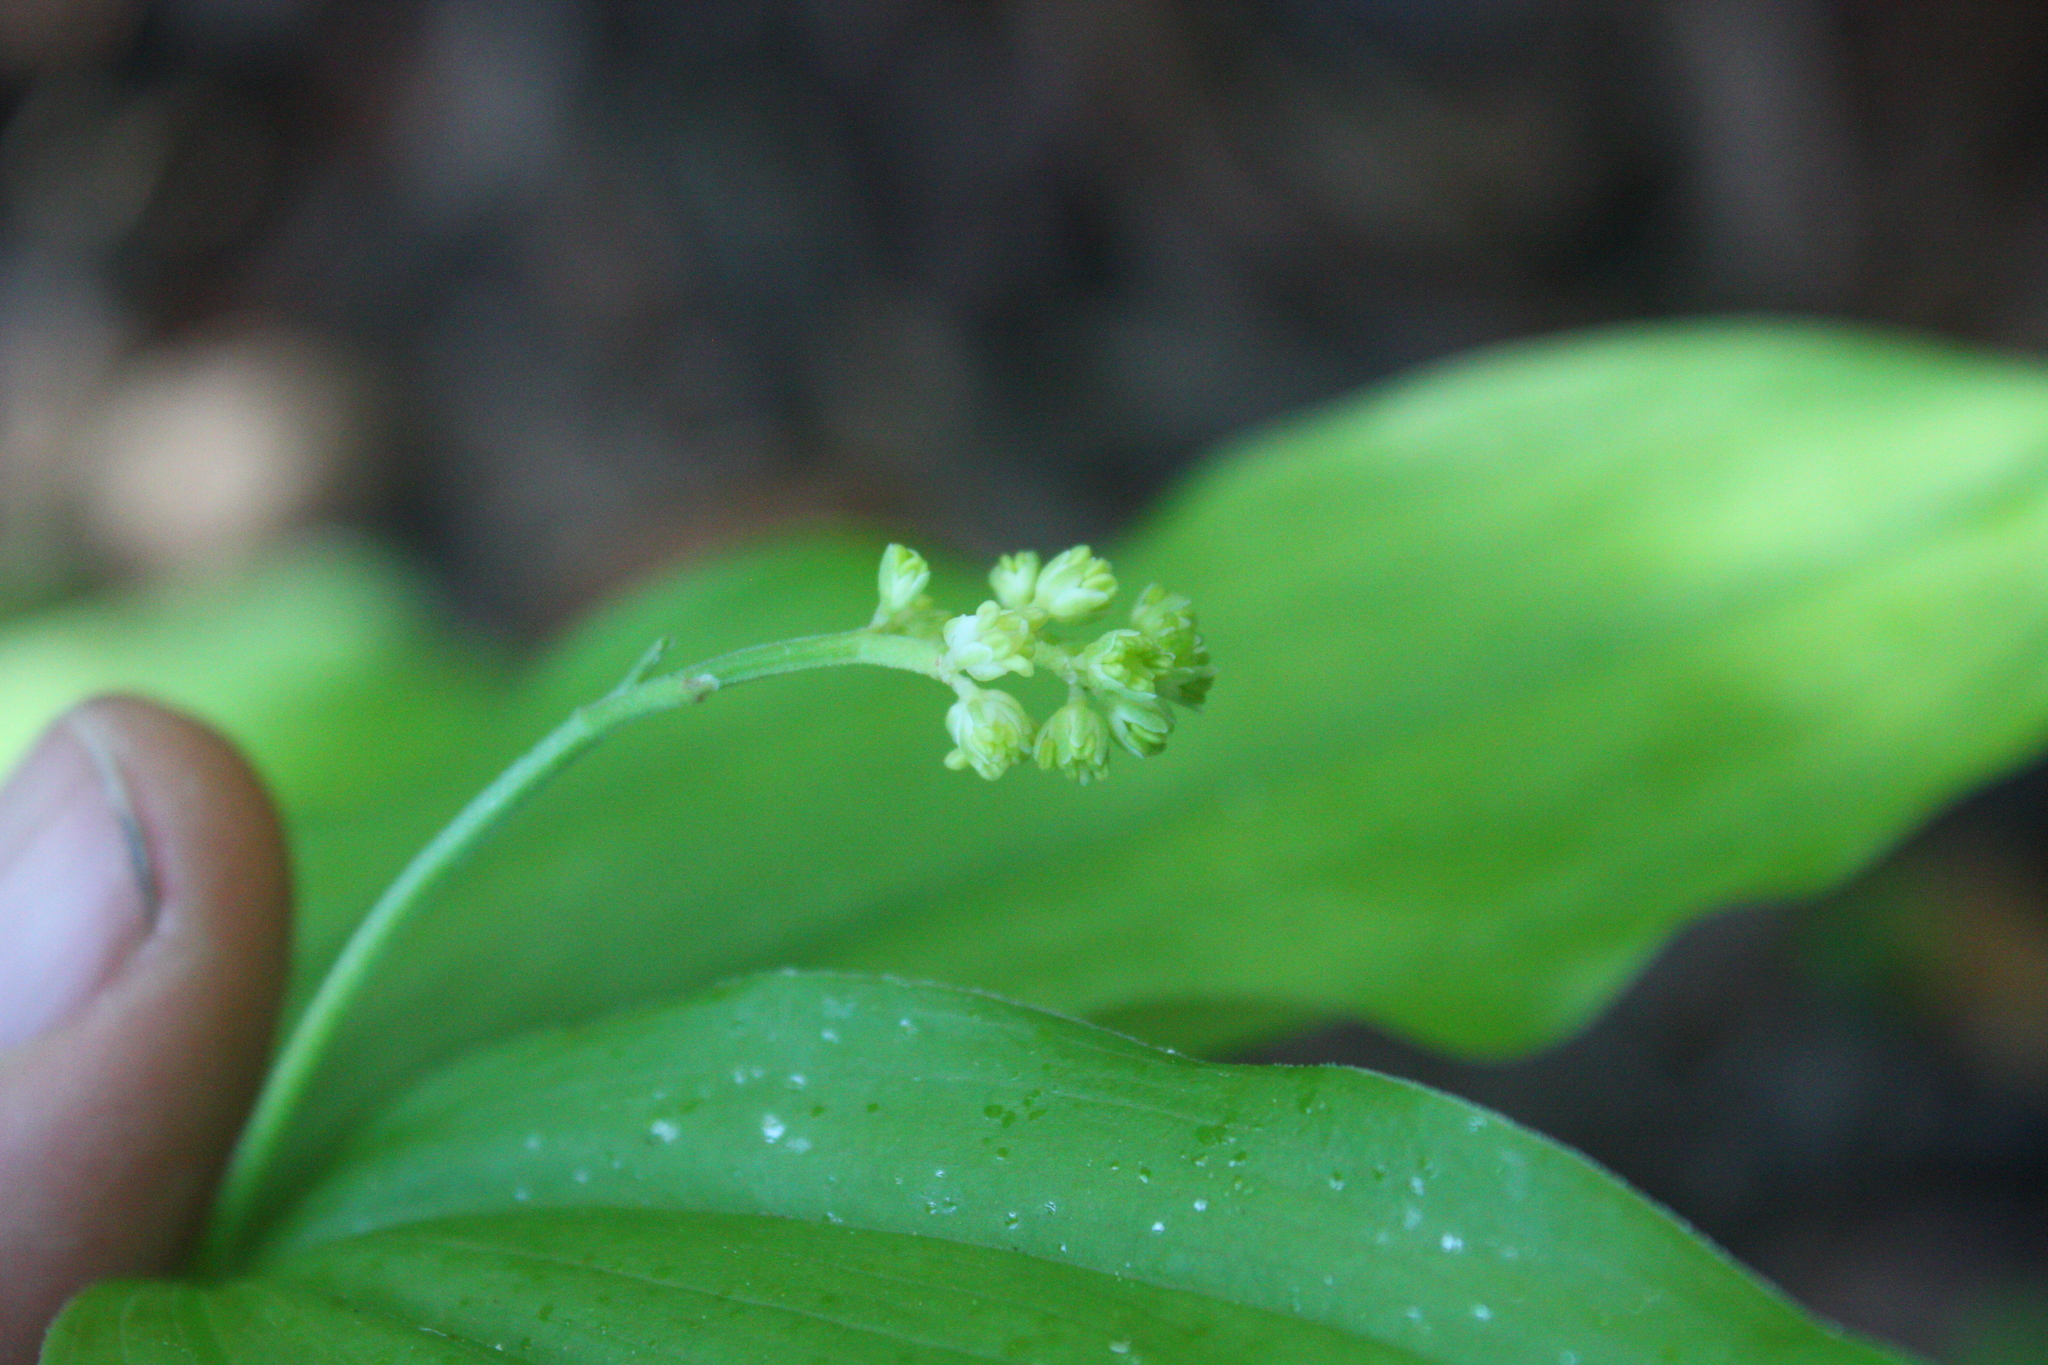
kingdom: Plantae
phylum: Tracheophyta
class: Liliopsida
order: Asparagales
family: Asparagaceae
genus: Maianthemum
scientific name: Maianthemum racemosum
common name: False spikenard
